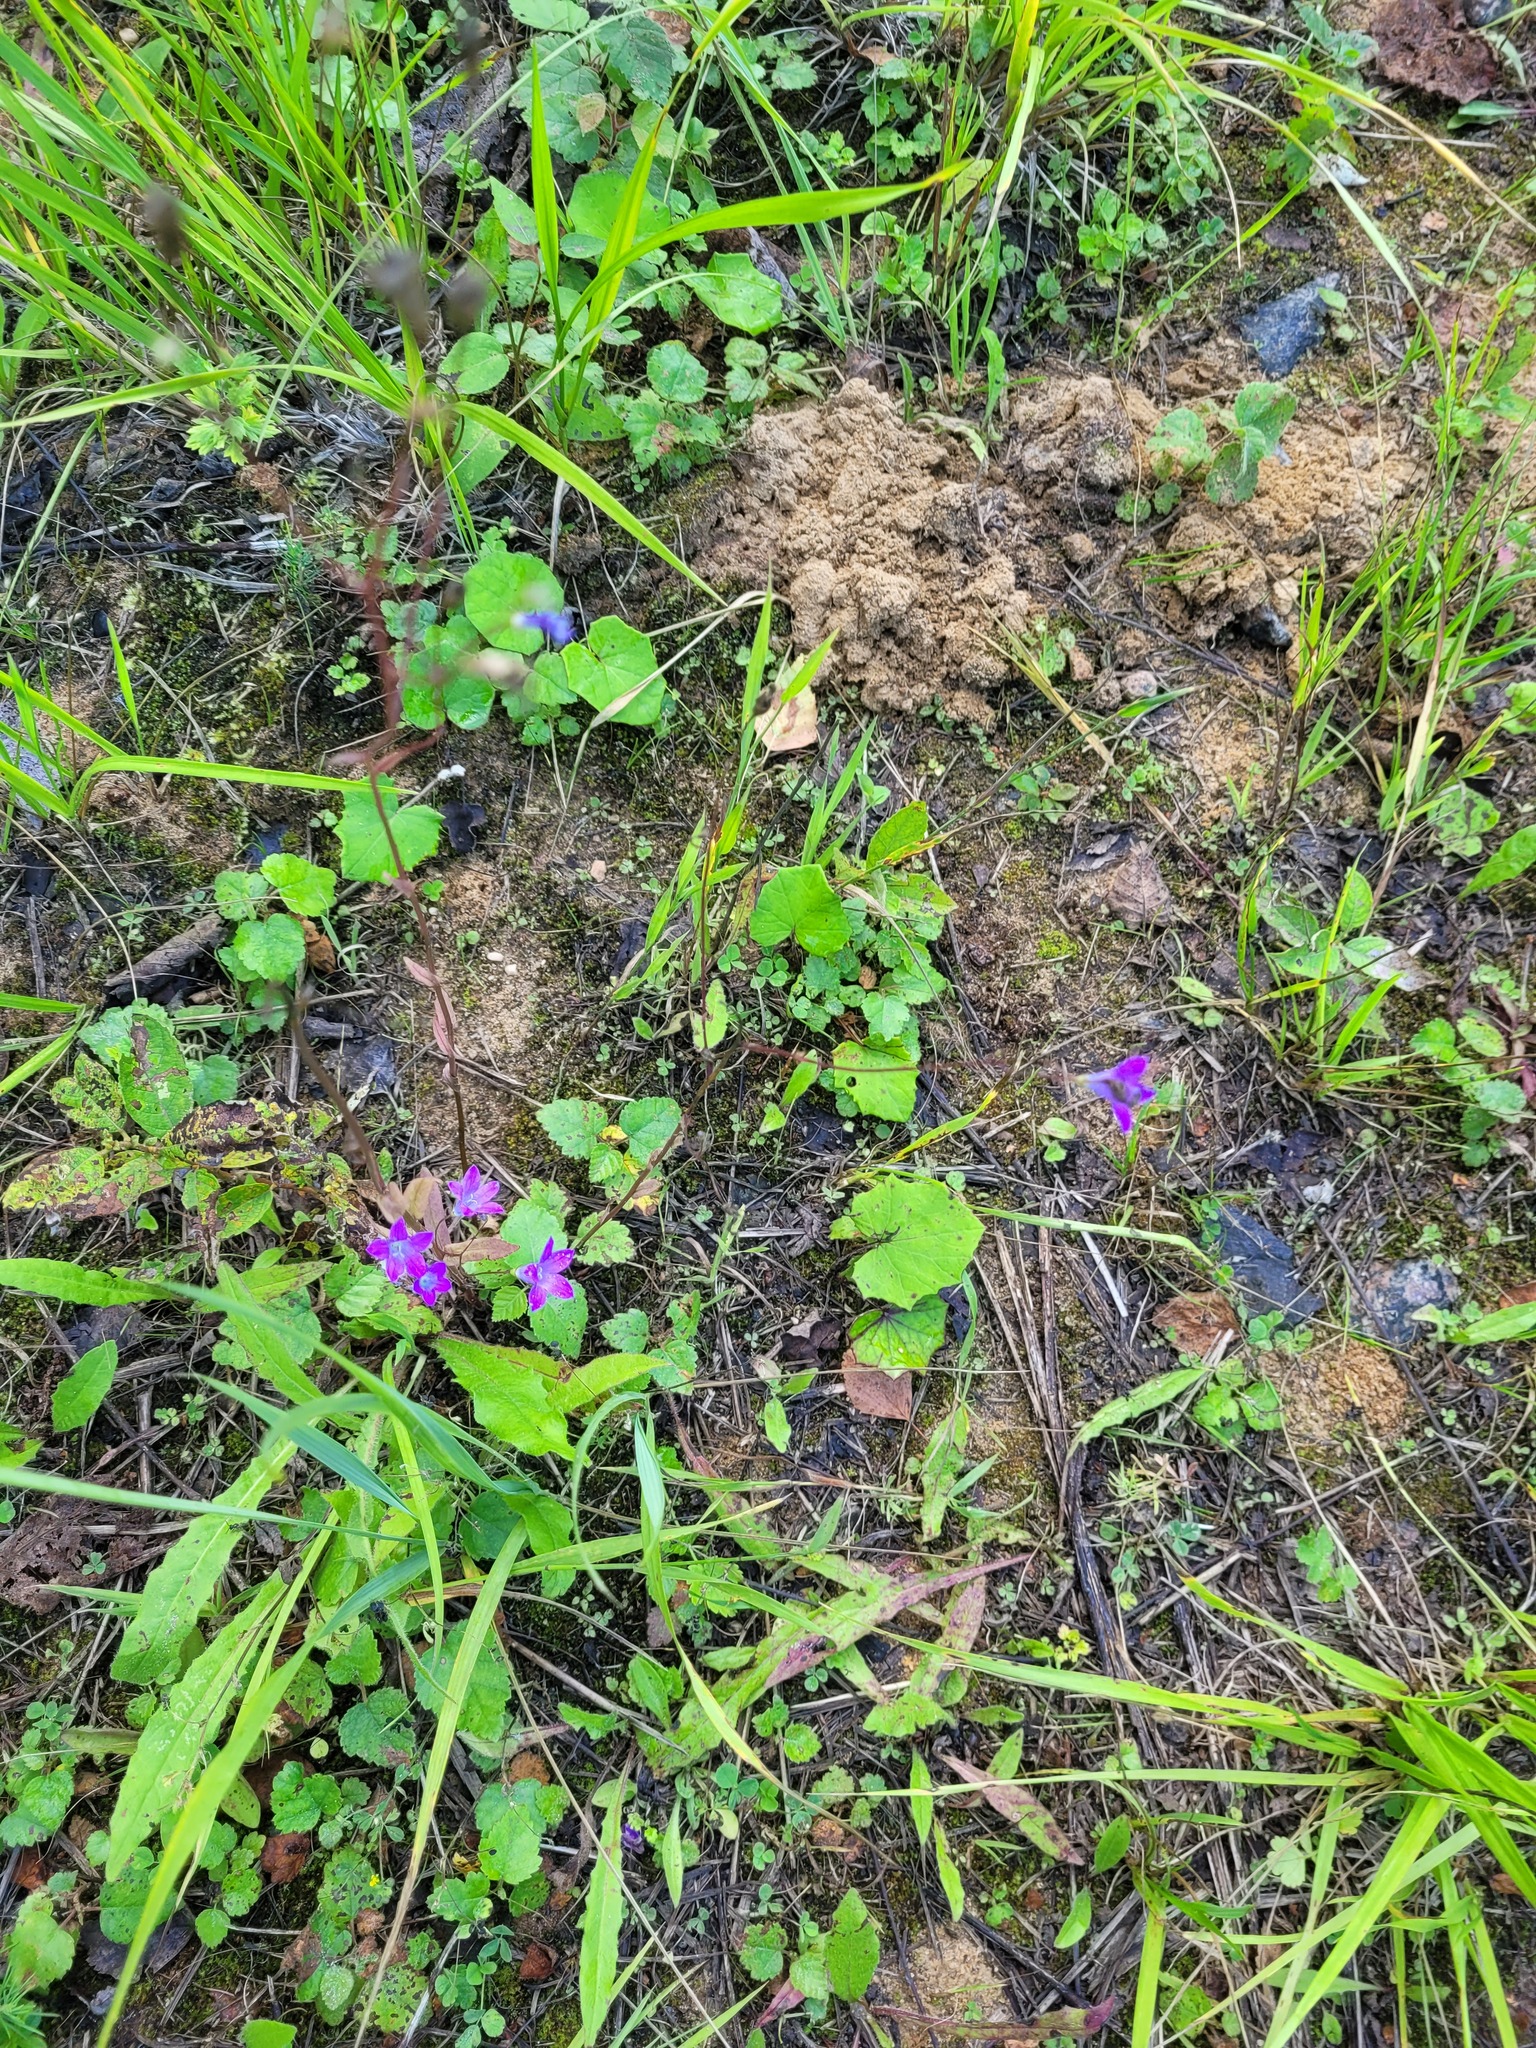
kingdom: Plantae
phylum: Tracheophyta
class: Magnoliopsida
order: Asterales
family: Campanulaceae
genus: Campanula
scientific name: Campanula patula
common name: Spreading bellflower
